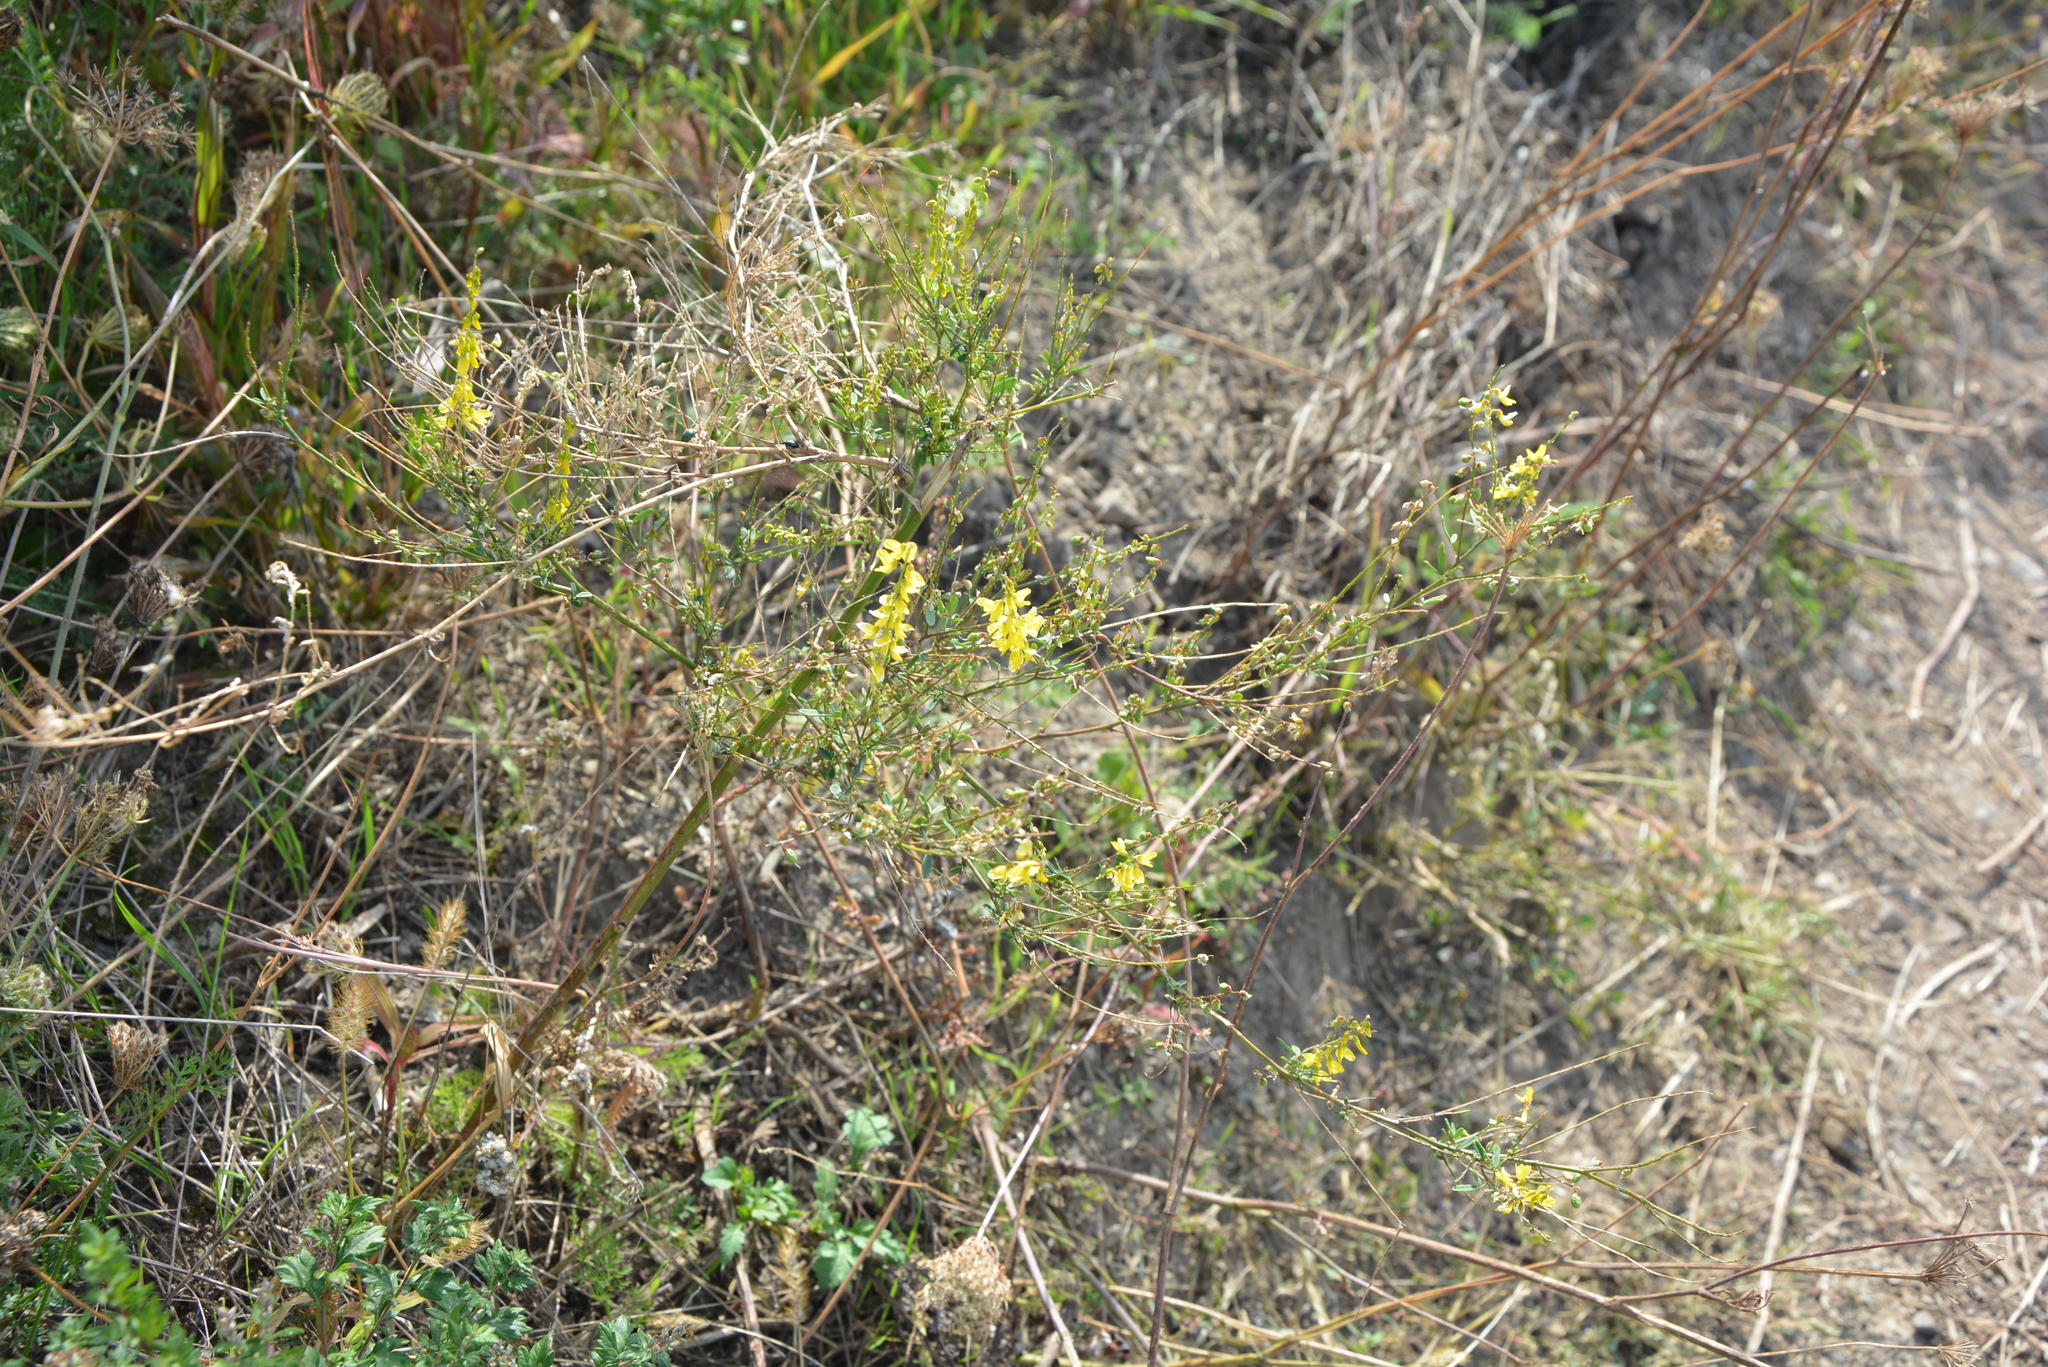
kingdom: Plantae
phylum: Tracheophyta
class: Magnoliopsida
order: Fabales
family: Fabaceae
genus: Melilotus
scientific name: Melilotus officinalis
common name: Sweetclover
